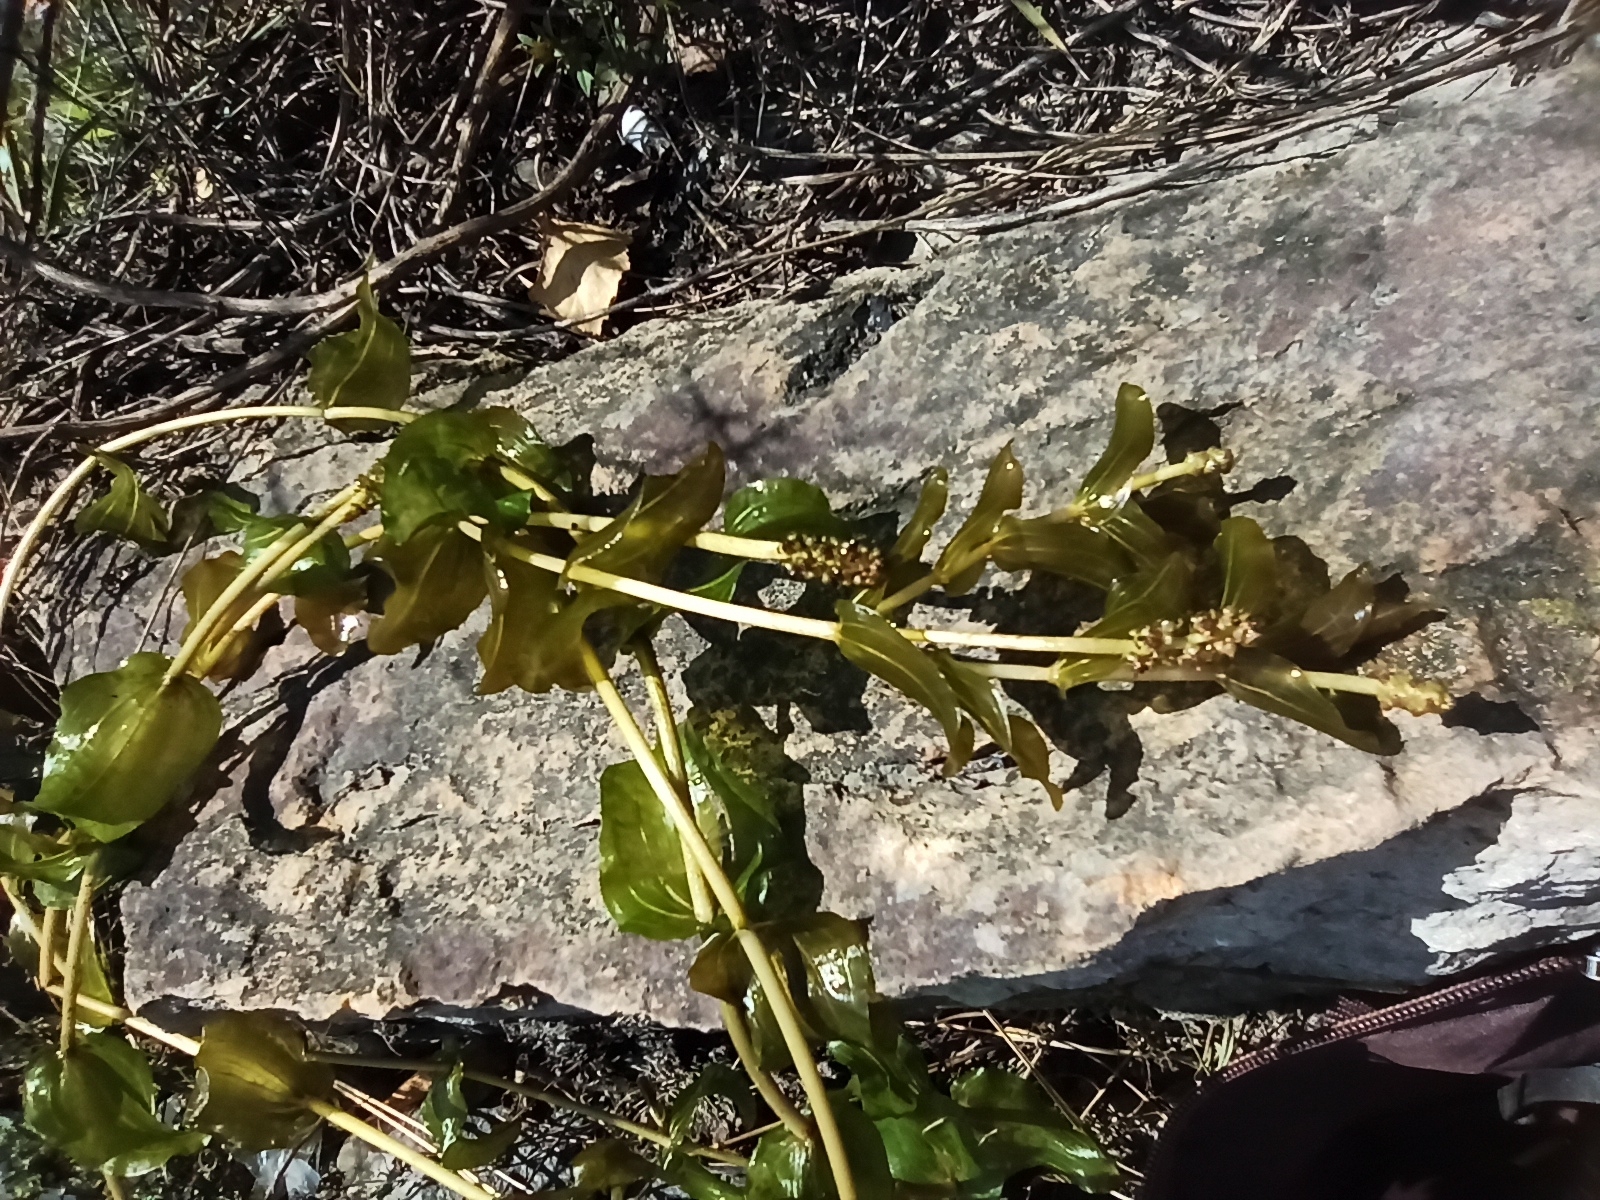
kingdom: Plantae
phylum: Tracheophyta
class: Liliopsida
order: Alismatales
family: Potamogetonaceae
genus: Potamogeton
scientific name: Potamogeton perfoliatus
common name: Perfoliate pondweed
